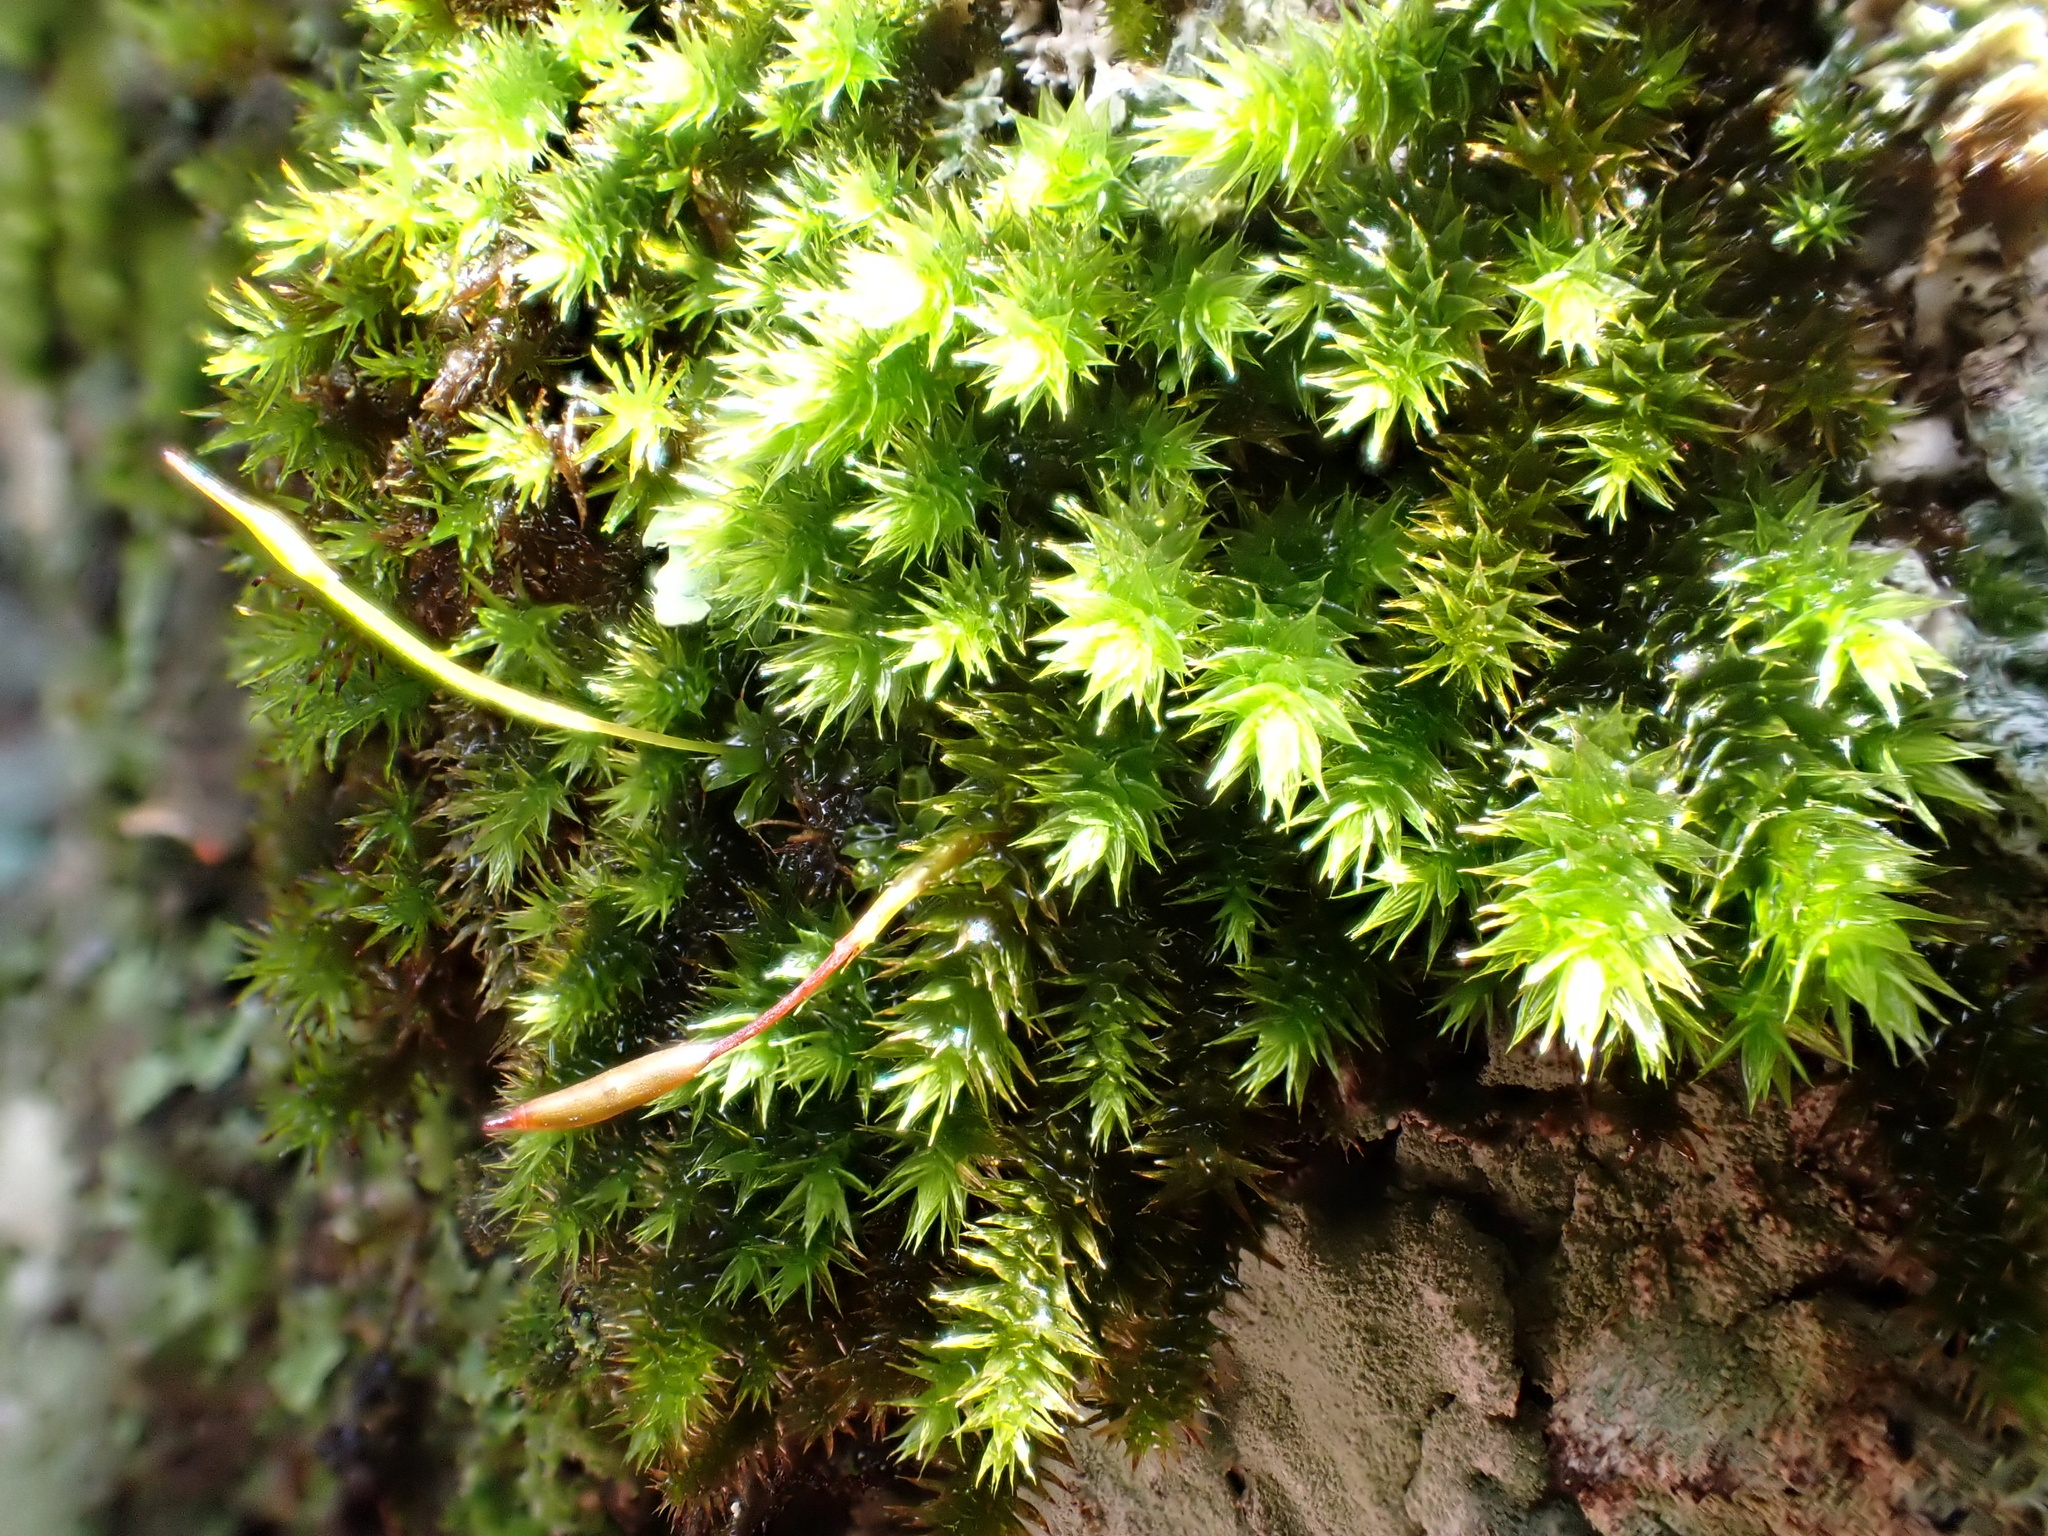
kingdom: Plantae
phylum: Bryophyta
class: Bryopsida
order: Hypnales
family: Leucodontaceae
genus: Leucodon
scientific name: Leucodon sciuroides
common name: Squirrel-tail moss
